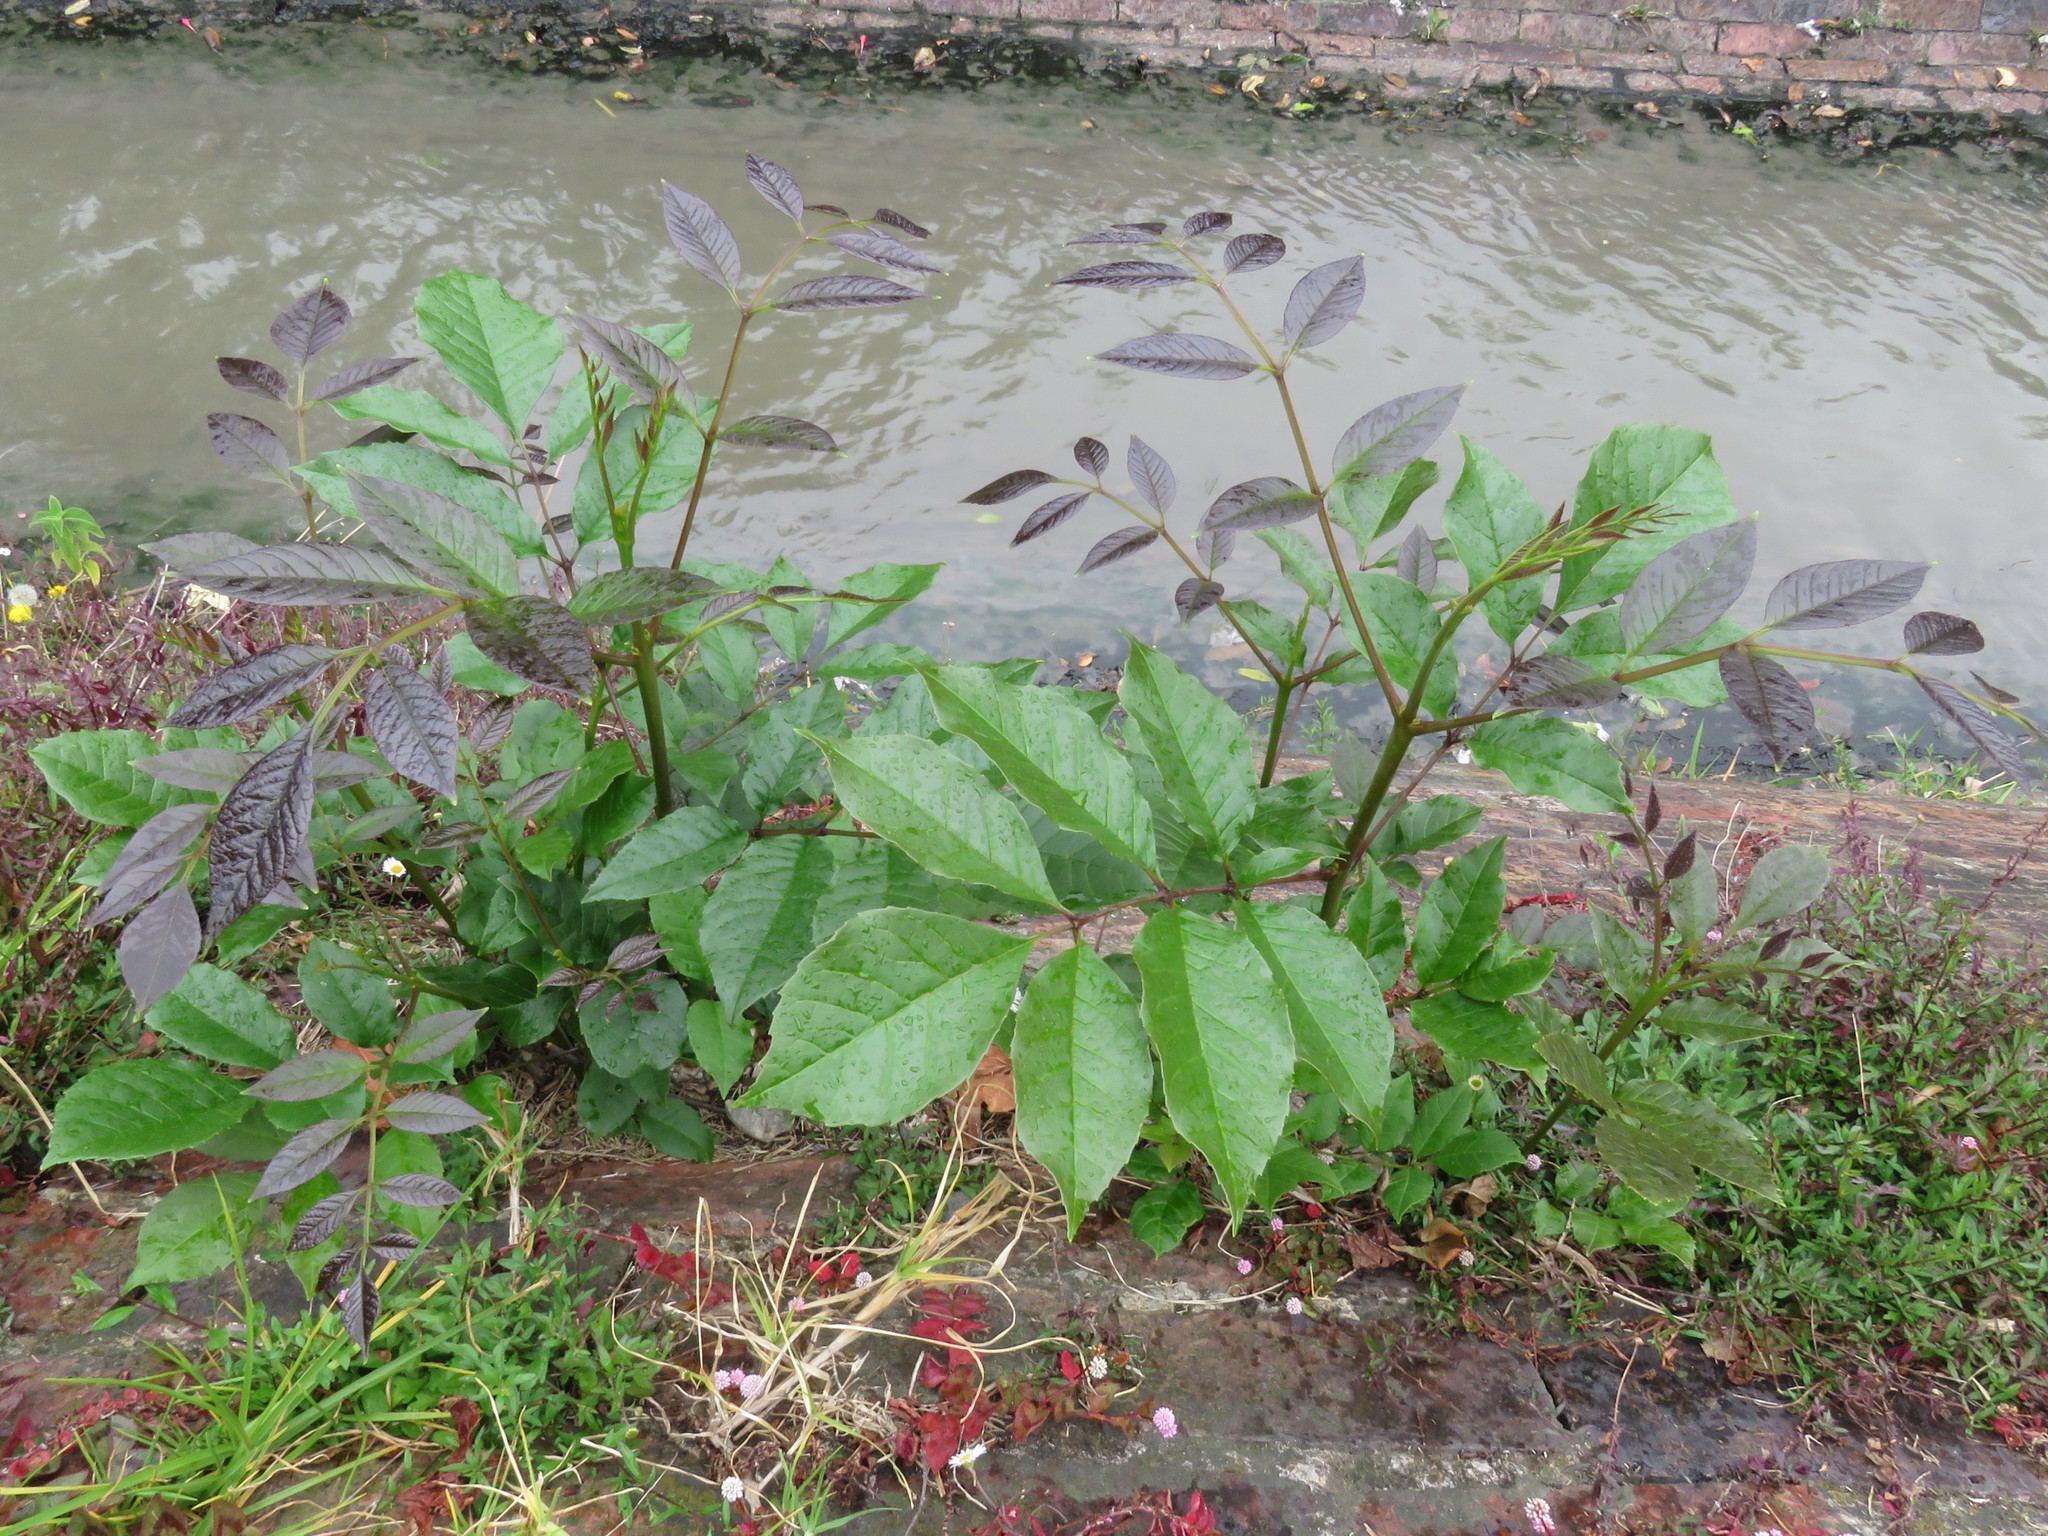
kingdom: Plantae
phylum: Tracheophyta
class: Magnoliopsida
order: Lamiales
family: Oleaceae
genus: Fraxinus
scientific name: Fraxinus uhdei
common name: Shamel ash
